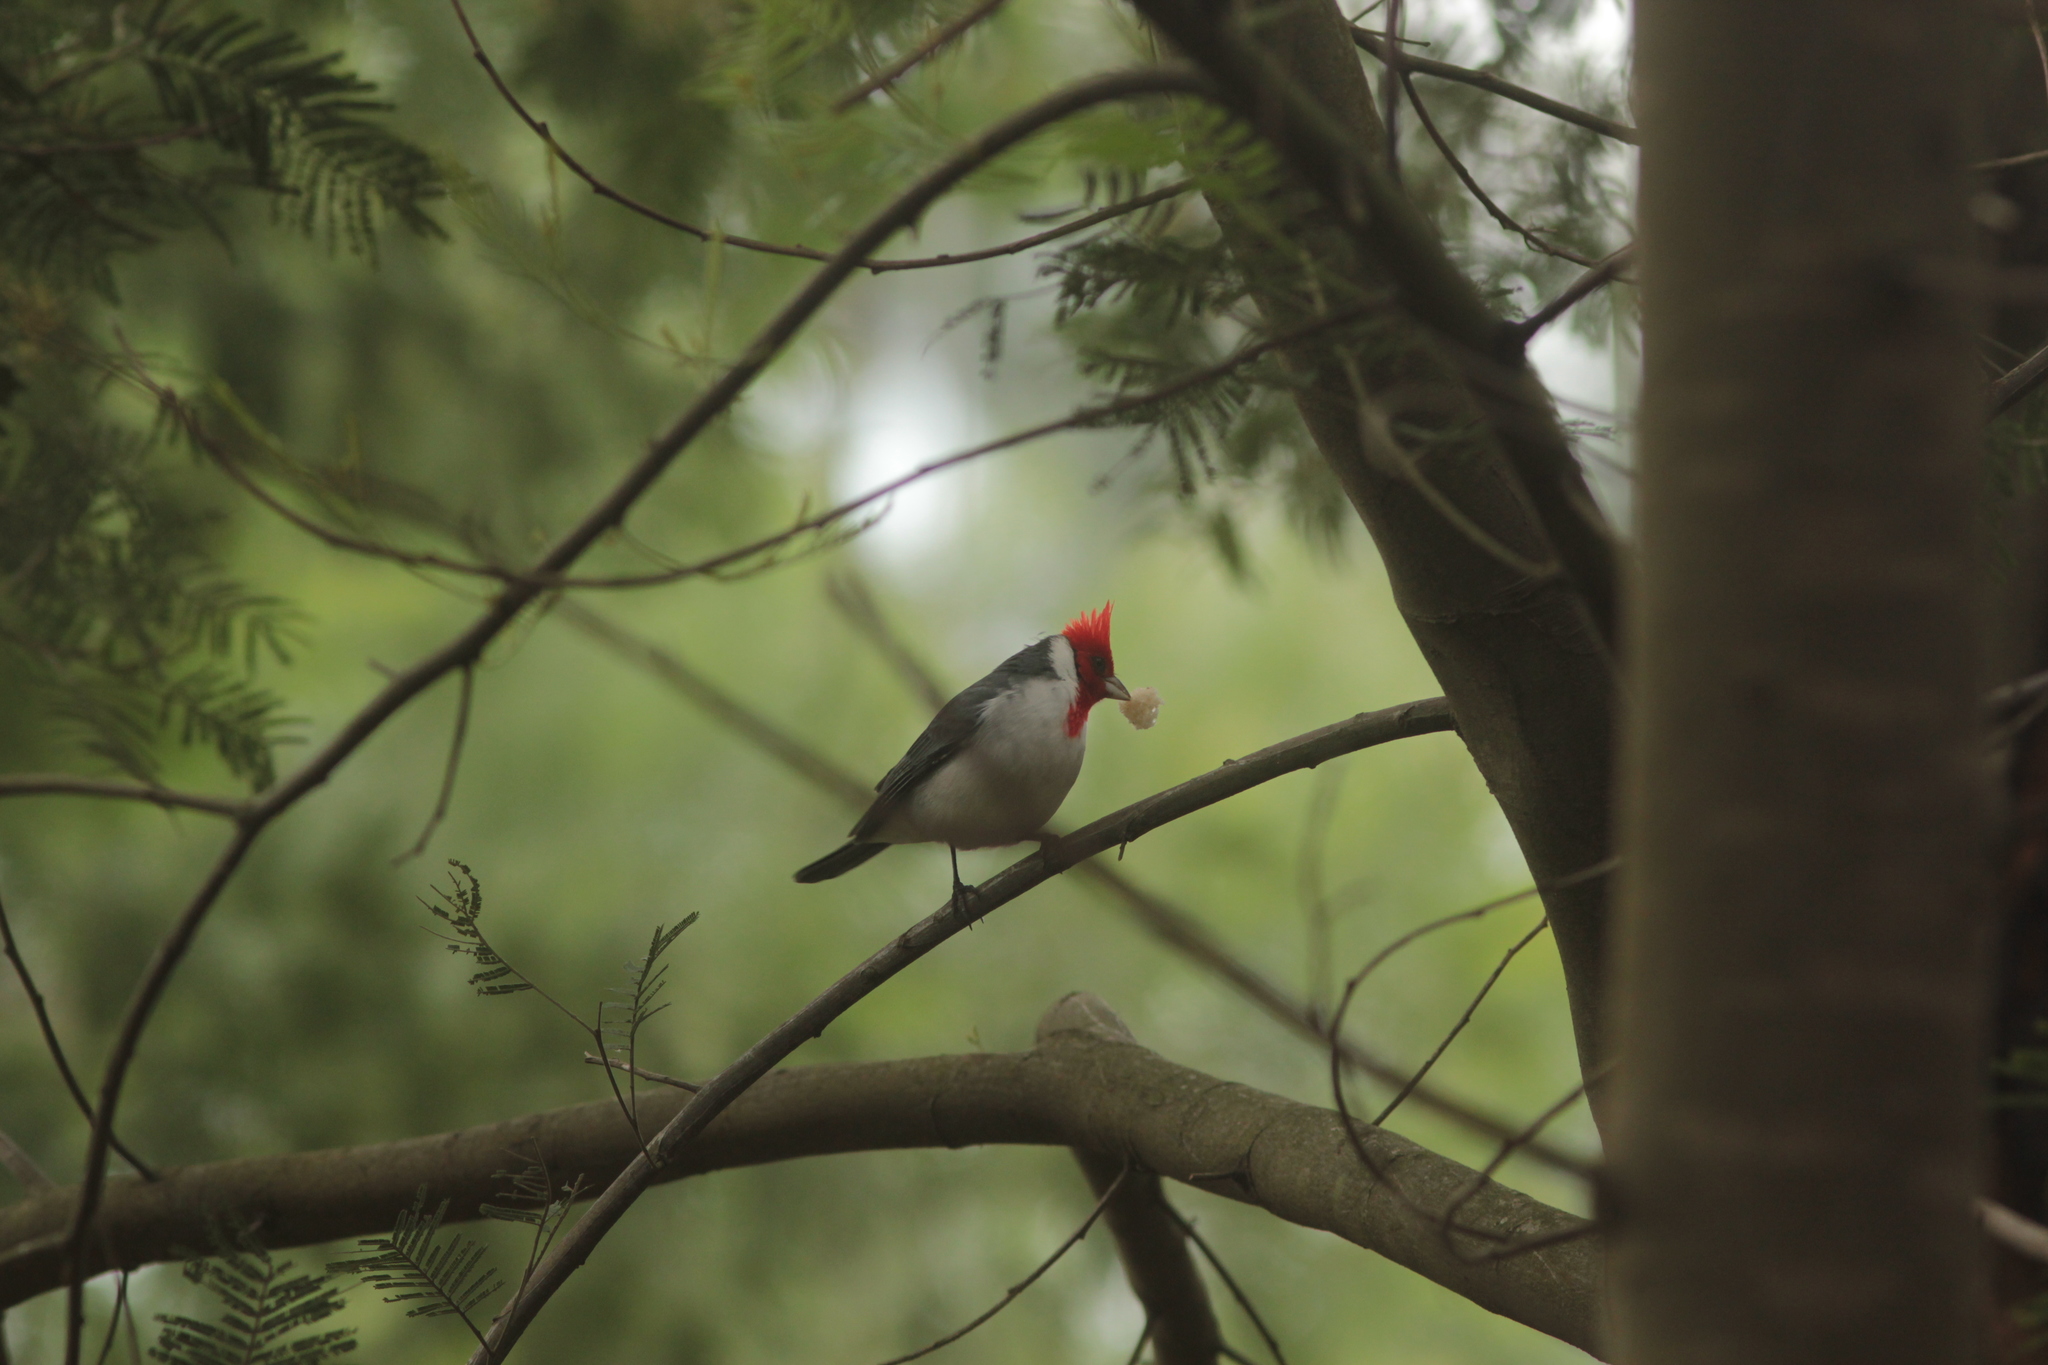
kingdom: Animalia
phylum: Chordata
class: Aves
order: Passeriformes
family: Thraupidae
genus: Paroaria
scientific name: Paroaria coronata
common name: Red-crested cardinal
